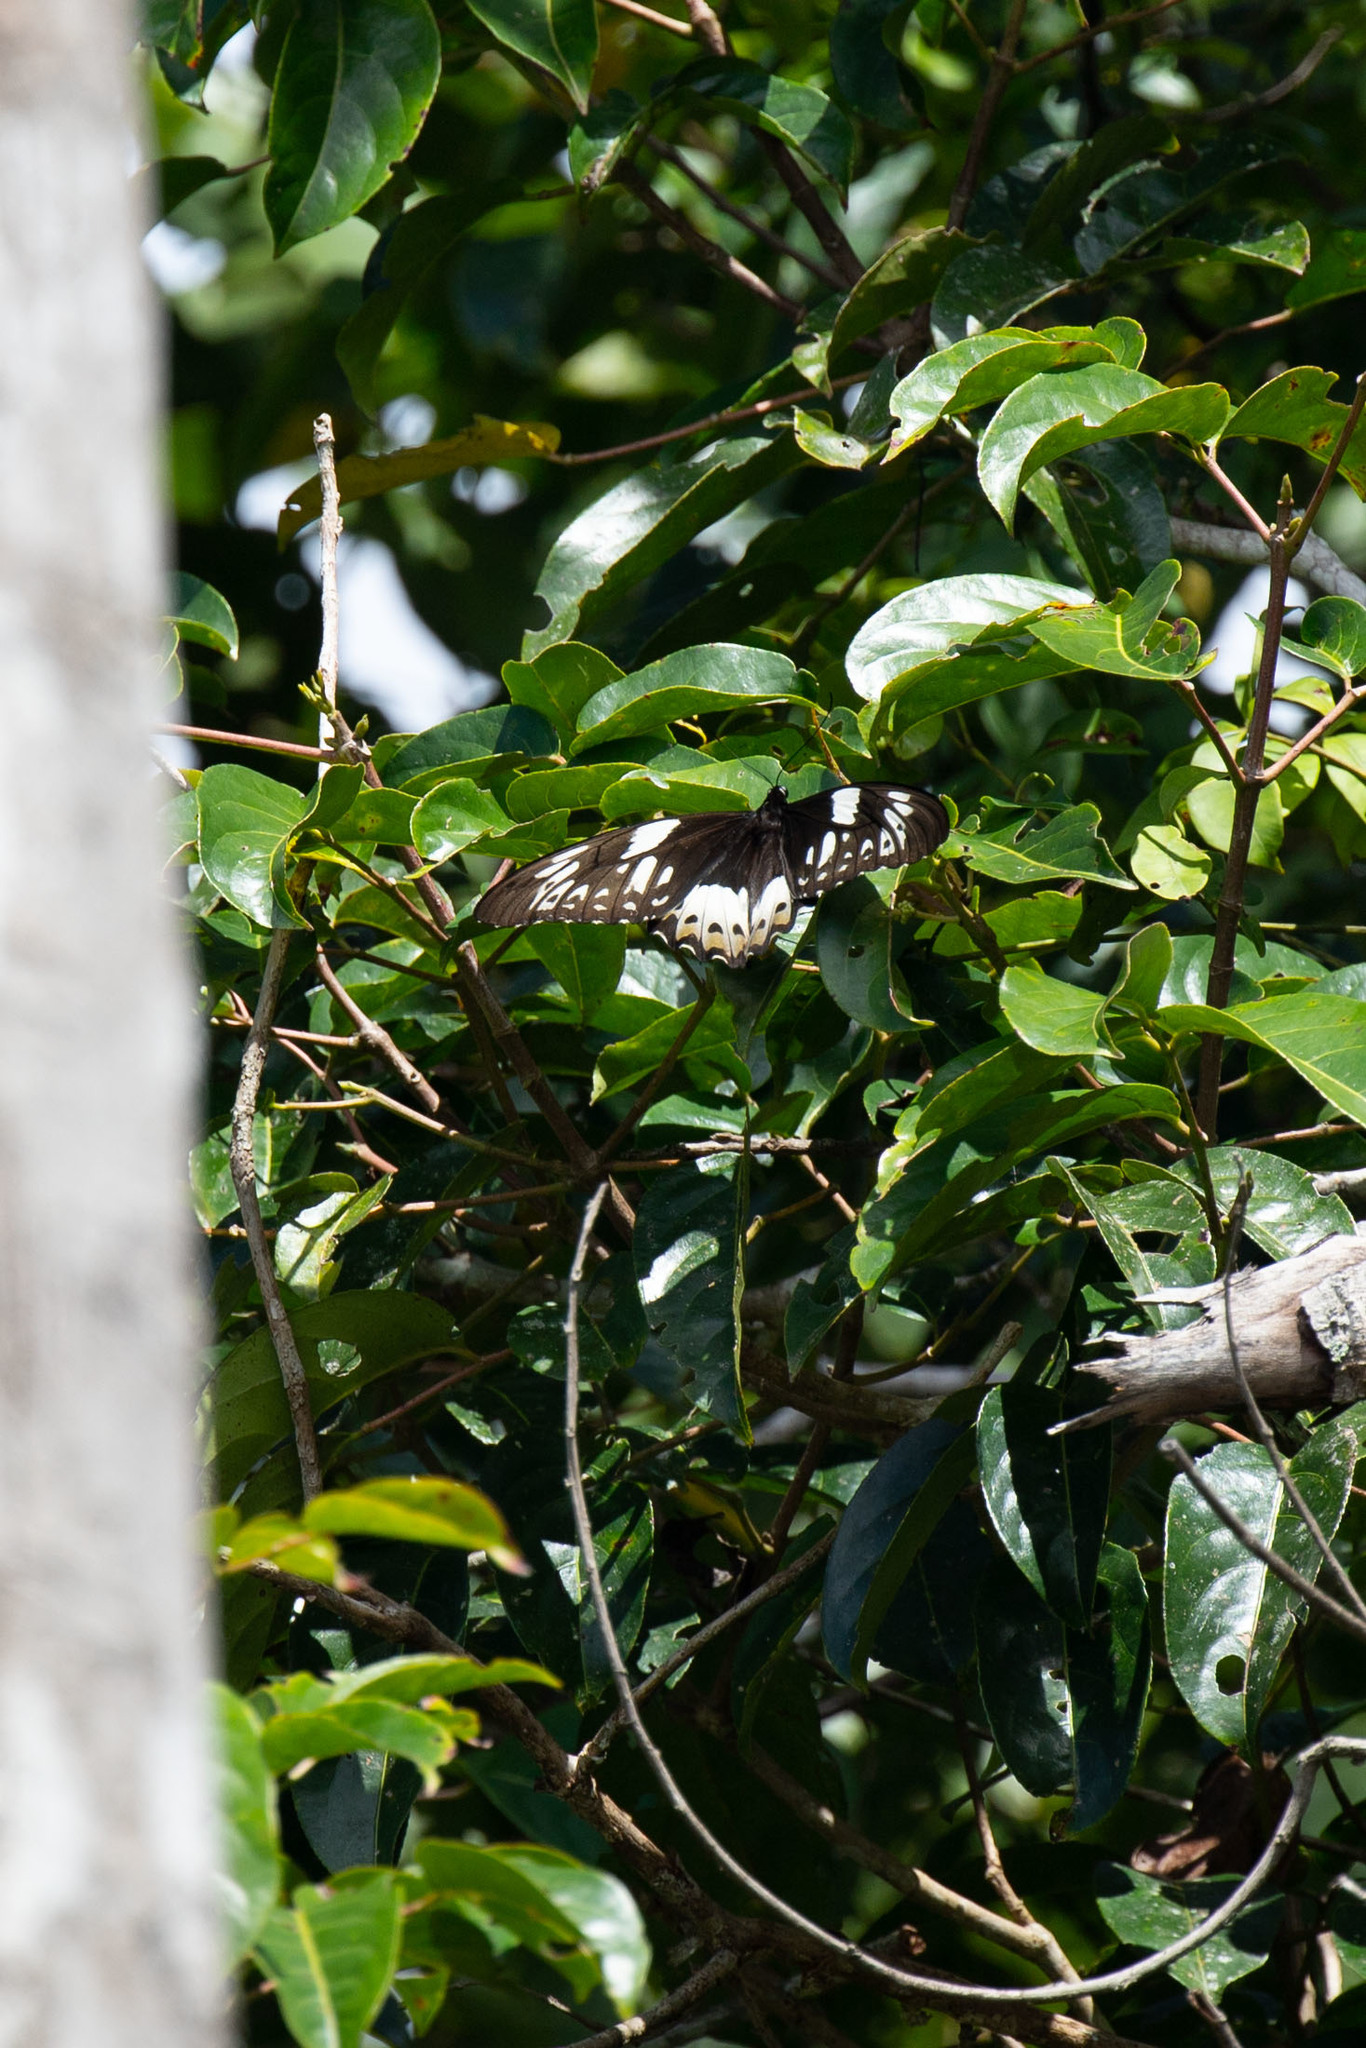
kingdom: Animalia
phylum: Arthropoda
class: Insecta
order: Lepidoptera
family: Papilionidae
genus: Ornithoptera
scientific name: Ornithoptera priamus
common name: Cape york birdwing
